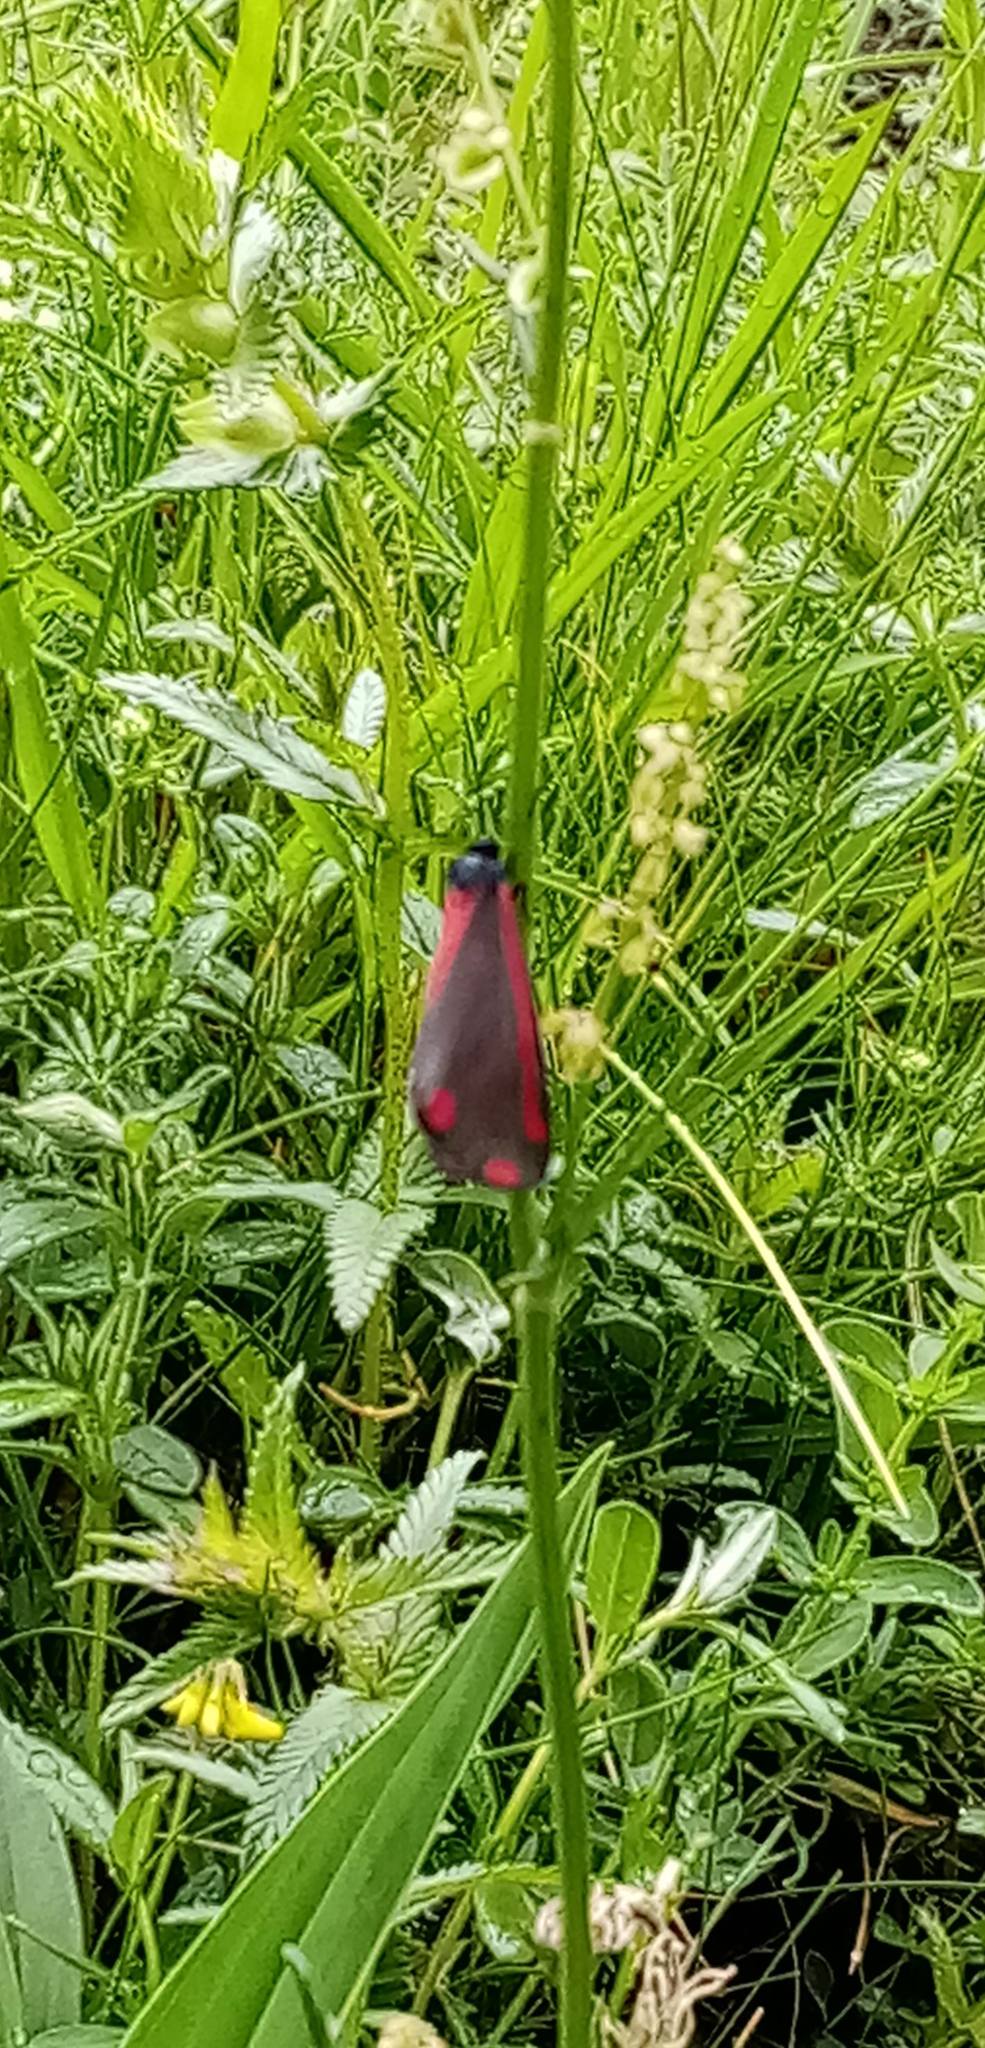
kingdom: Animalia
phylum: Arthropoda
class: Insecta
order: Lepidoptera
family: Erebidae
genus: Tyria
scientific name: Tyria jacobaeae
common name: Cinnabar
